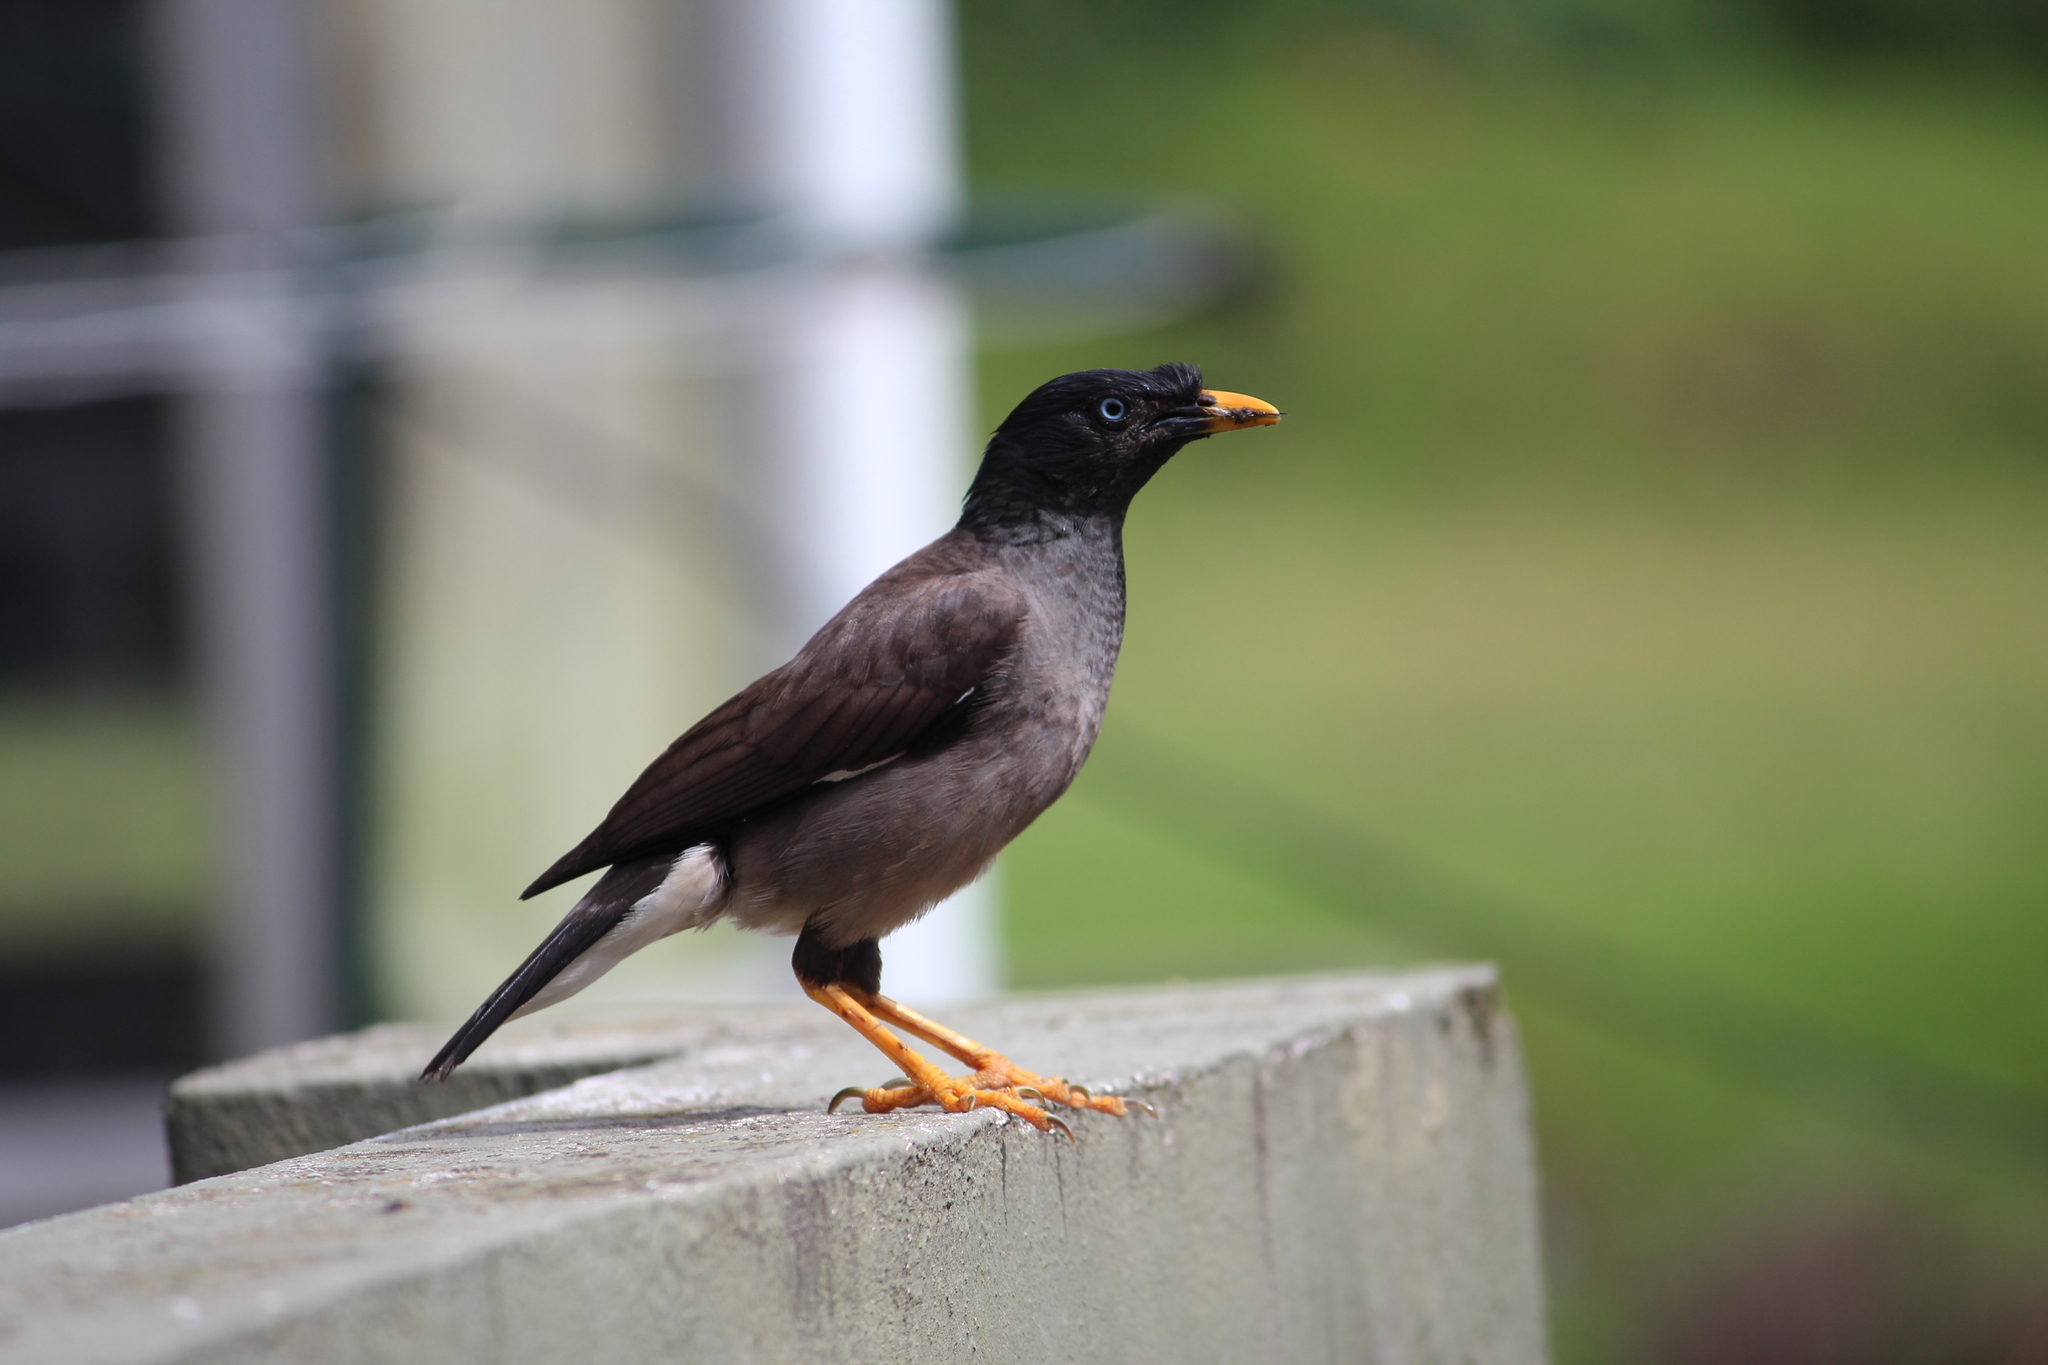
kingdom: Animalia
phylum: Chordata
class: Aves
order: Passeriformes
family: Sturnidae
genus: Acridotheres
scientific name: Acridotheres fuscus
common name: Jungle myna
